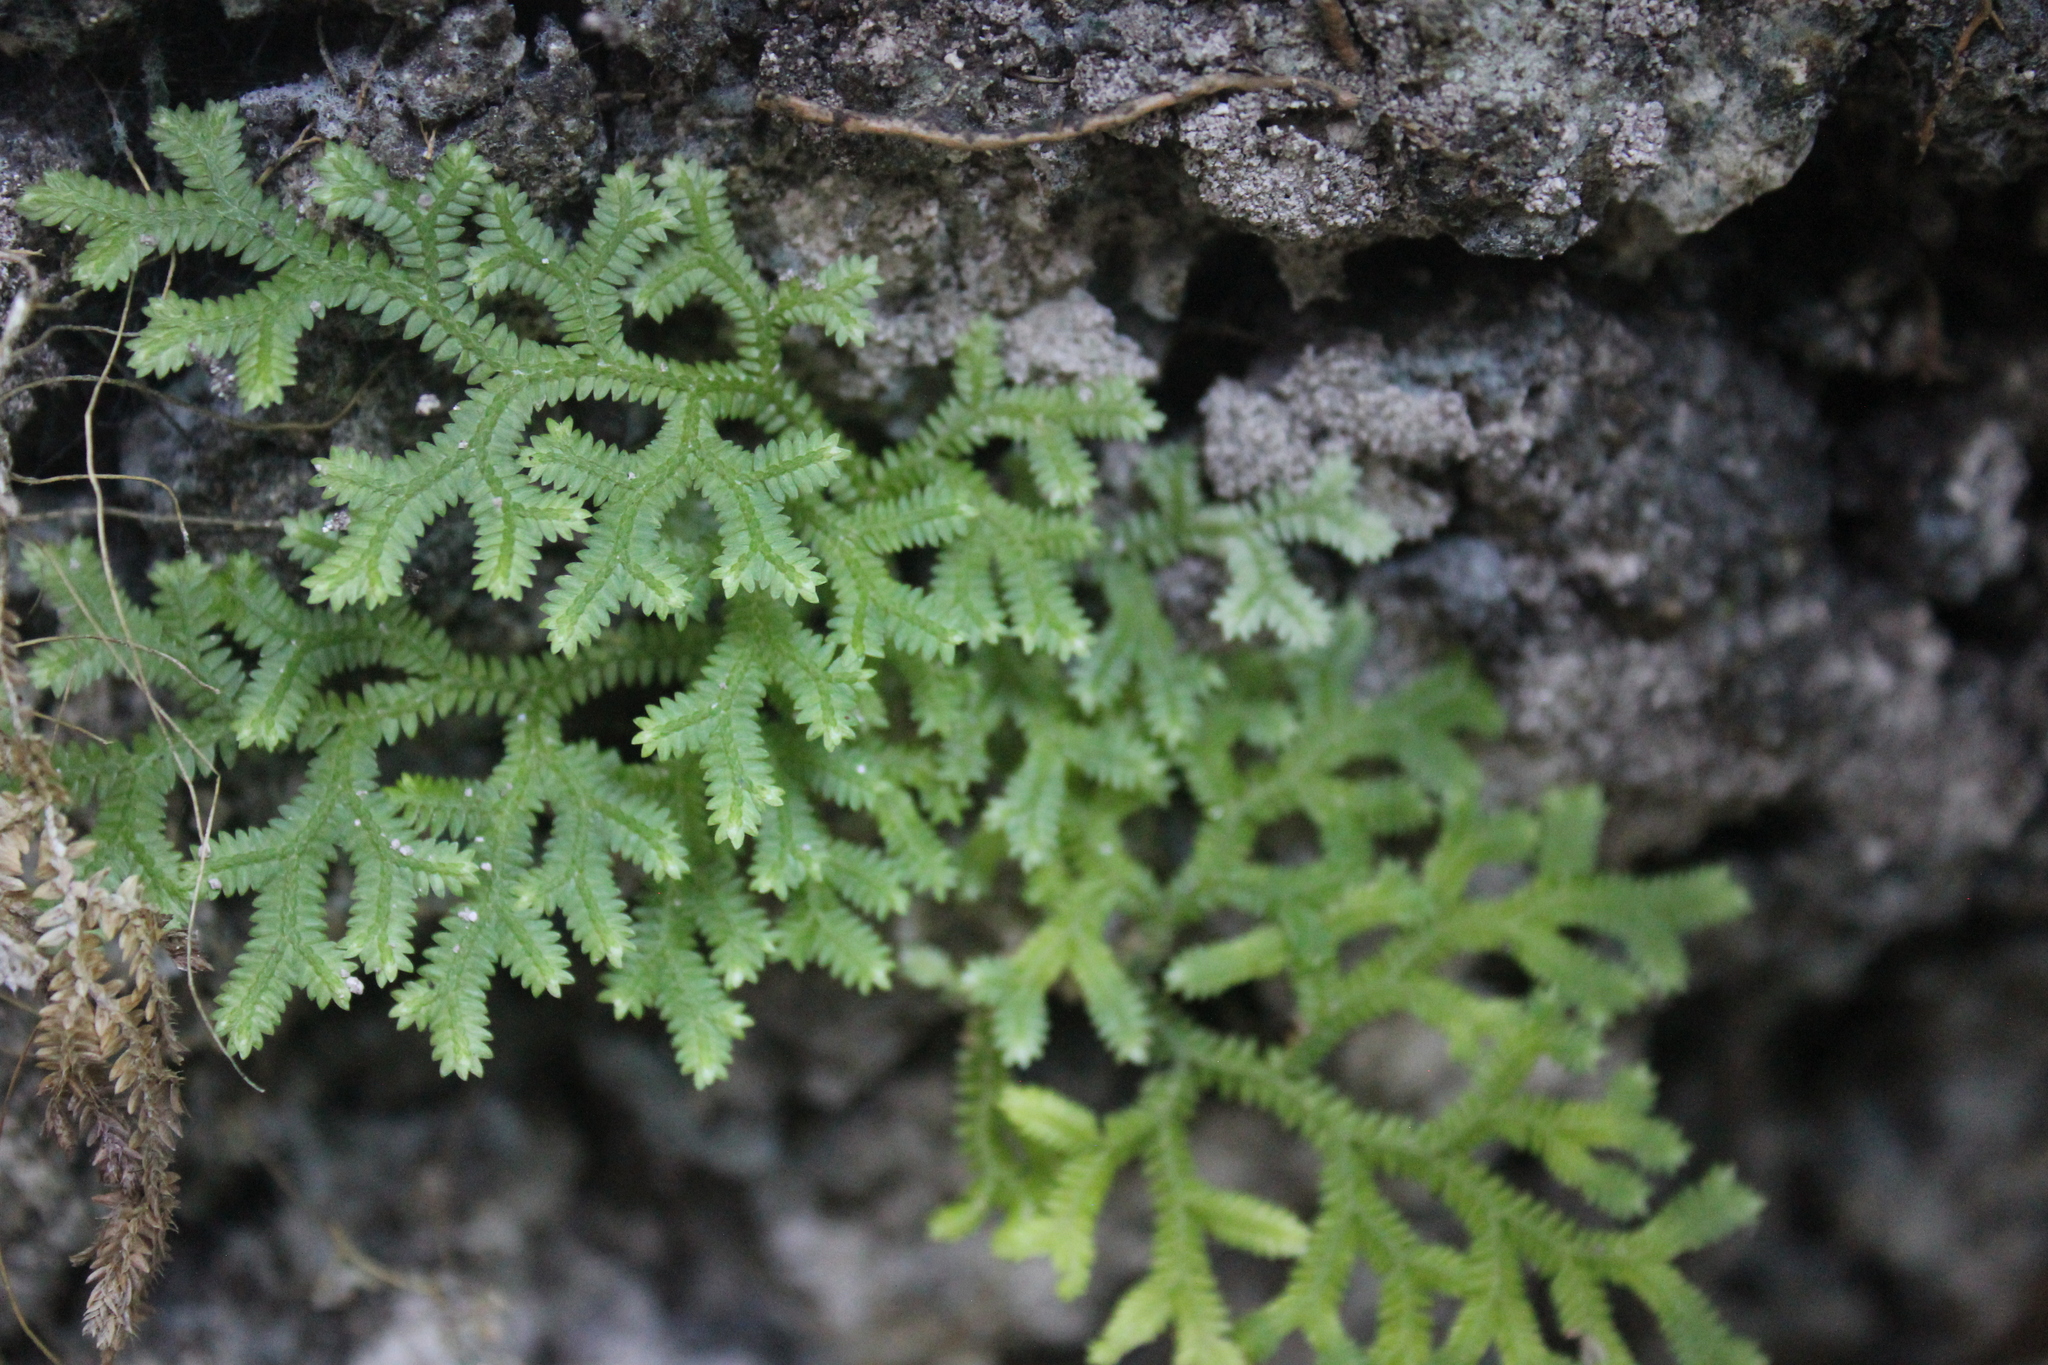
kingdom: Plantae
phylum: Tracheophyta
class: Lycopodiopsida
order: Selaginellales
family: Selaginellaceae
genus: Selaginella
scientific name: Selaginella doederleinii
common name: Greater selaginella
